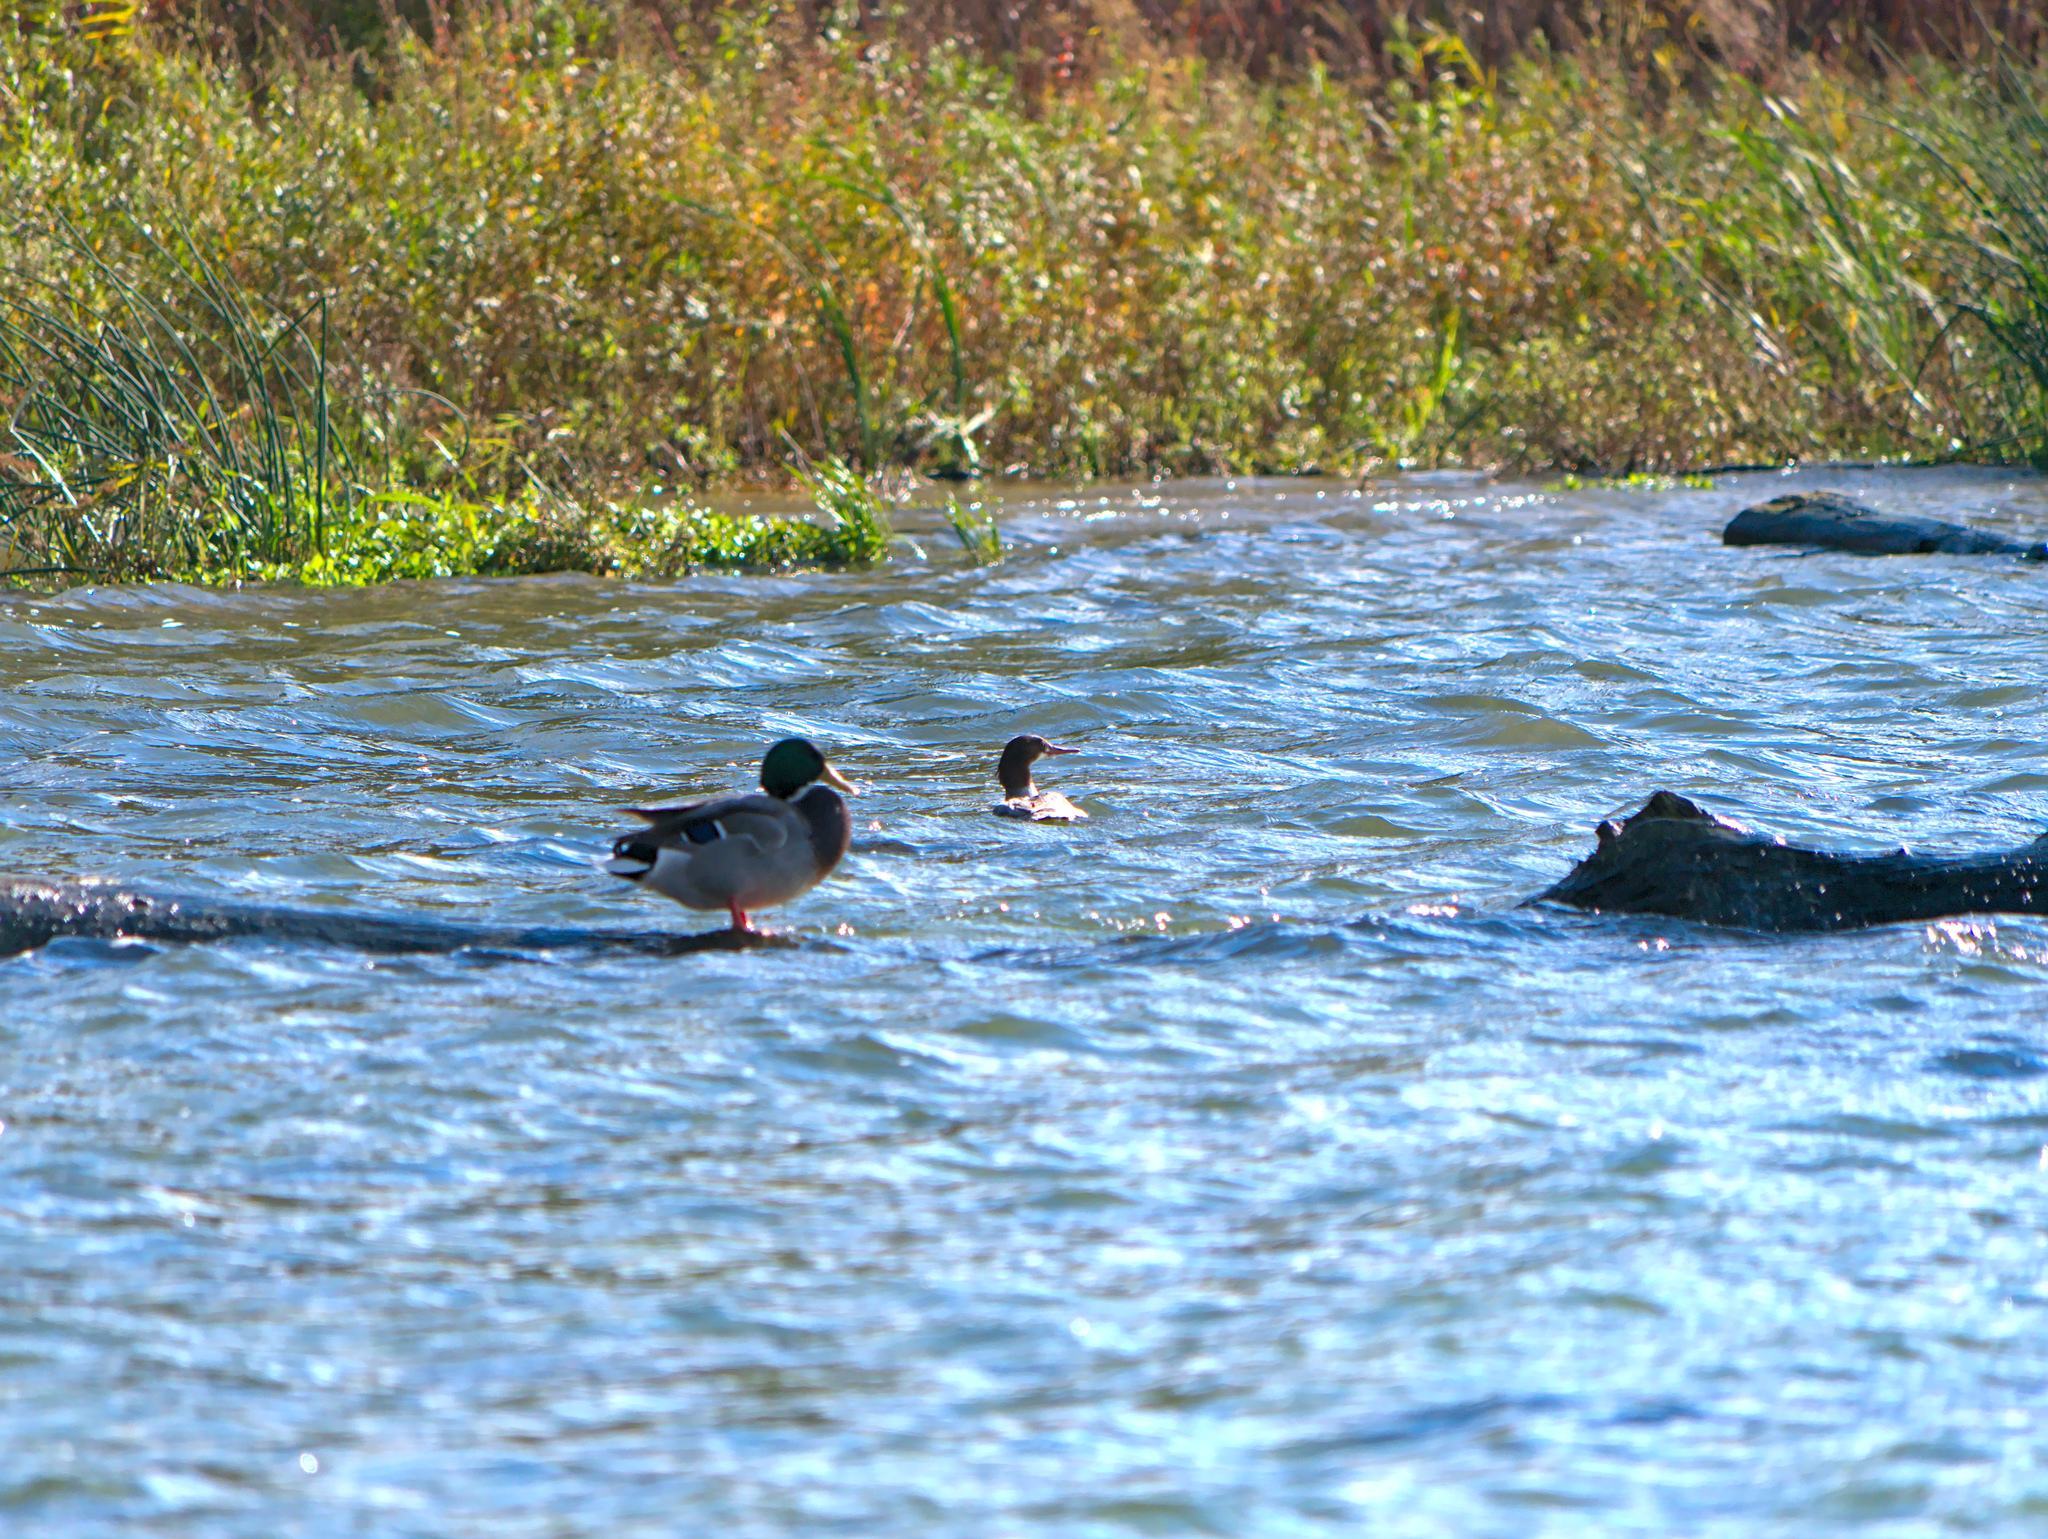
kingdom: Animalia
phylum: Chordata
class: Aves
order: Anseriformes
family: Anatidae
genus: Mergus
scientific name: Mergus merganser
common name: Common merganser
